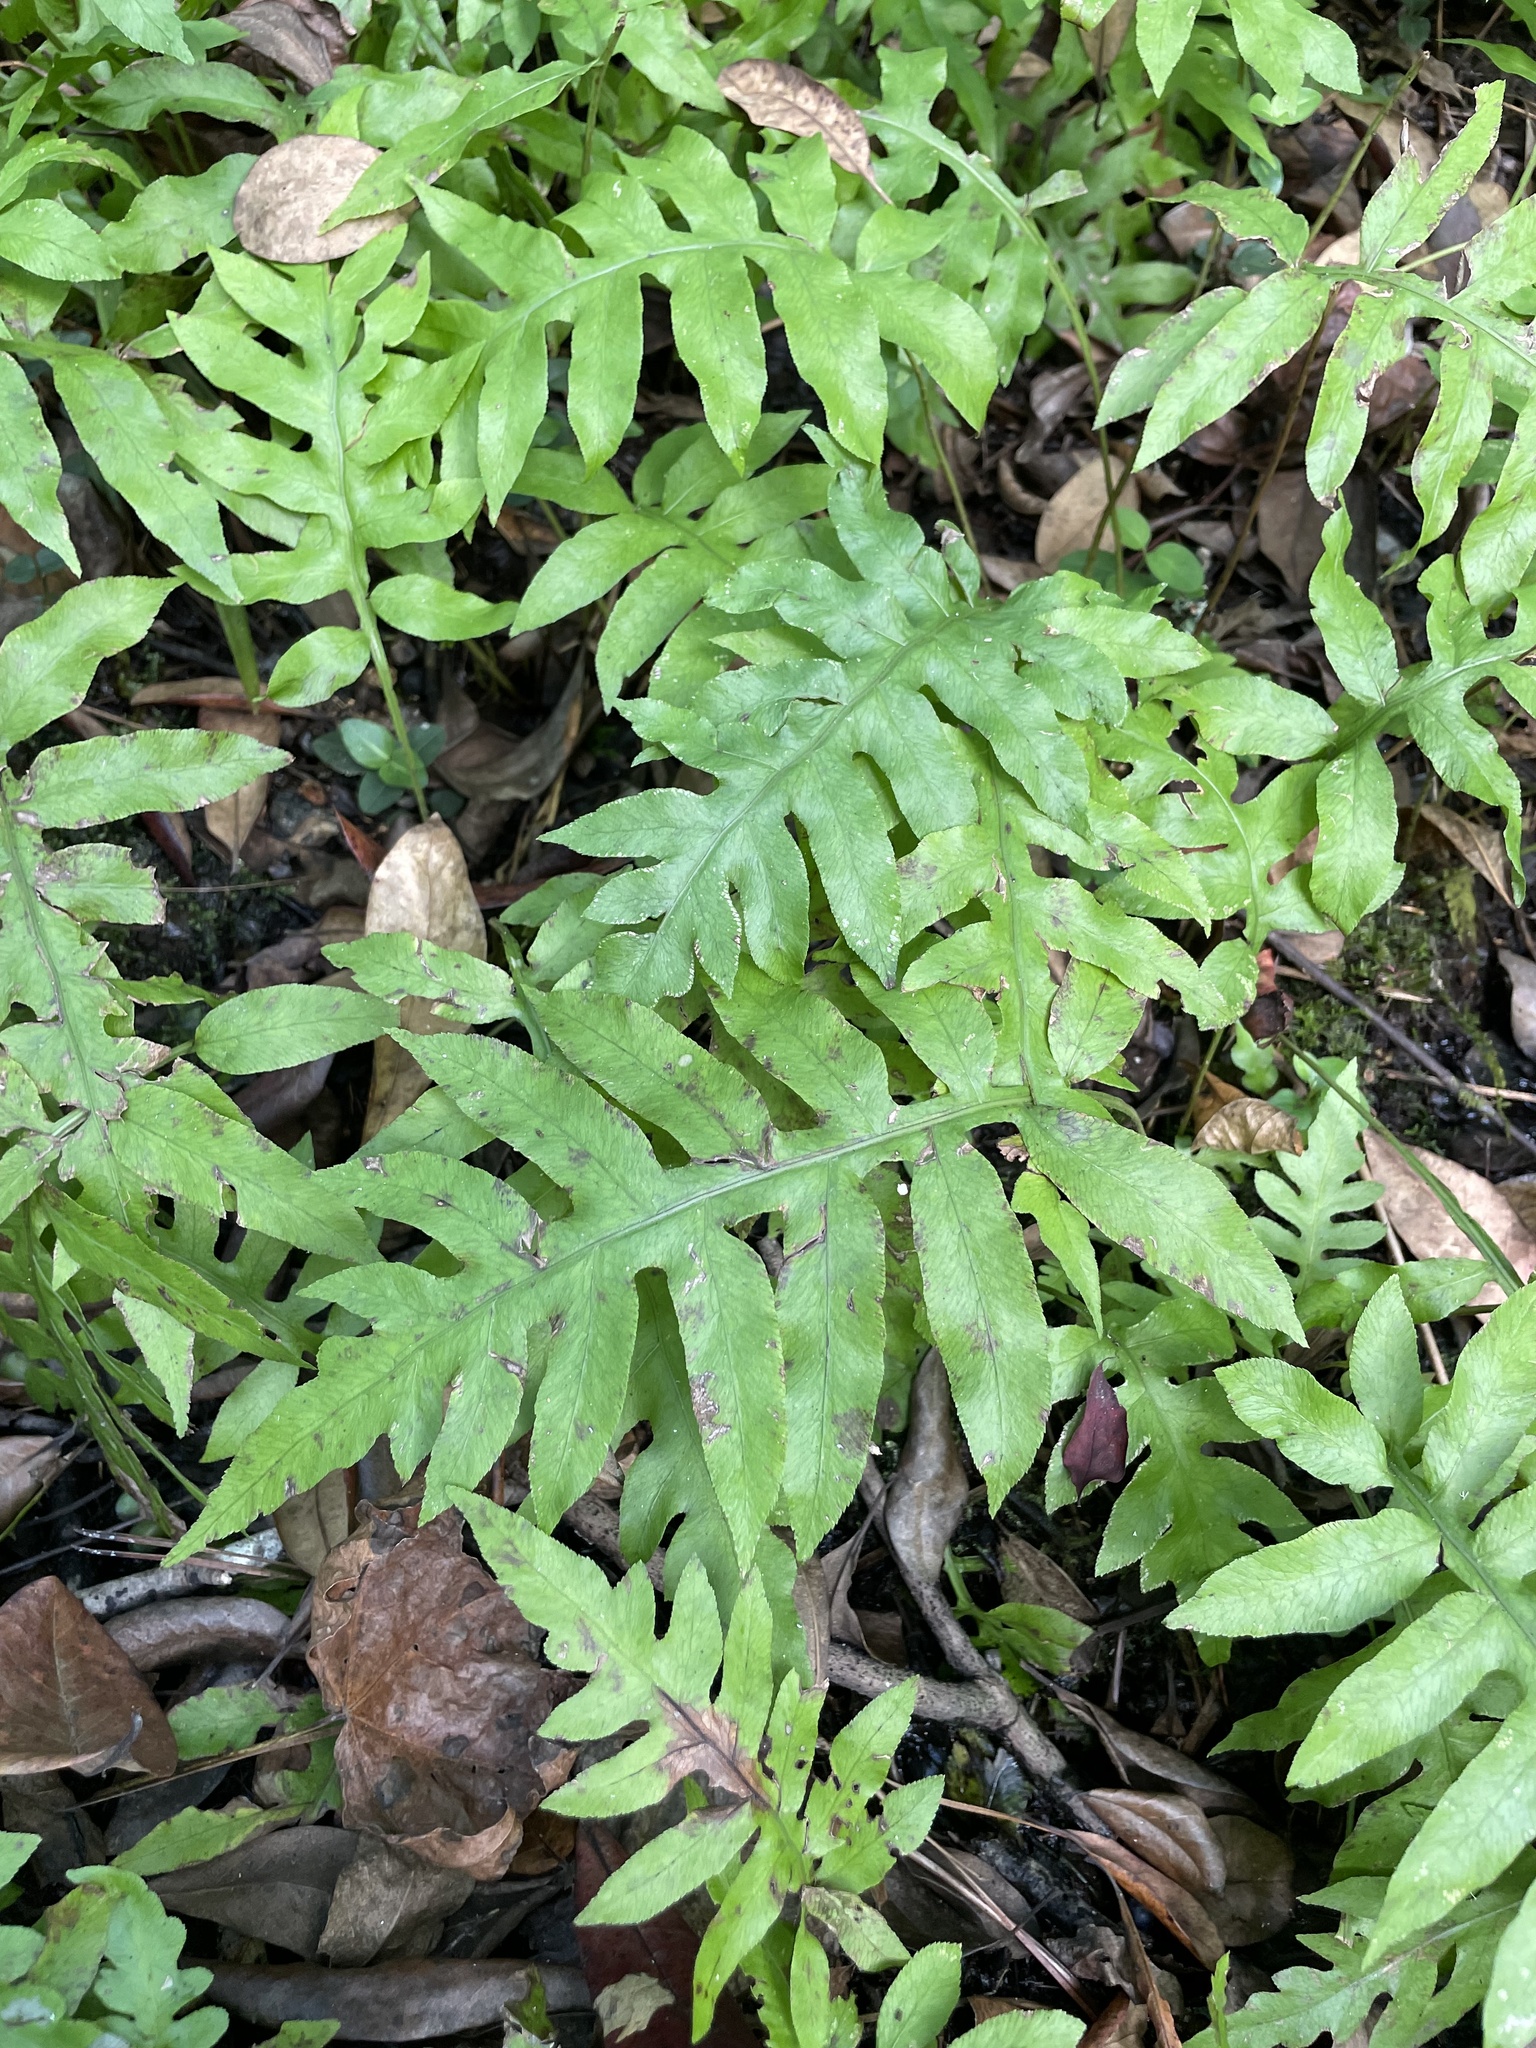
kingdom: Plantae
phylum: Tracheophyta
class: Polypodiopsida
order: Polypodiales
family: Blechnaceae
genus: Lorinseria
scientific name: Lorinseria areolata
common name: Dwarf chain fern
